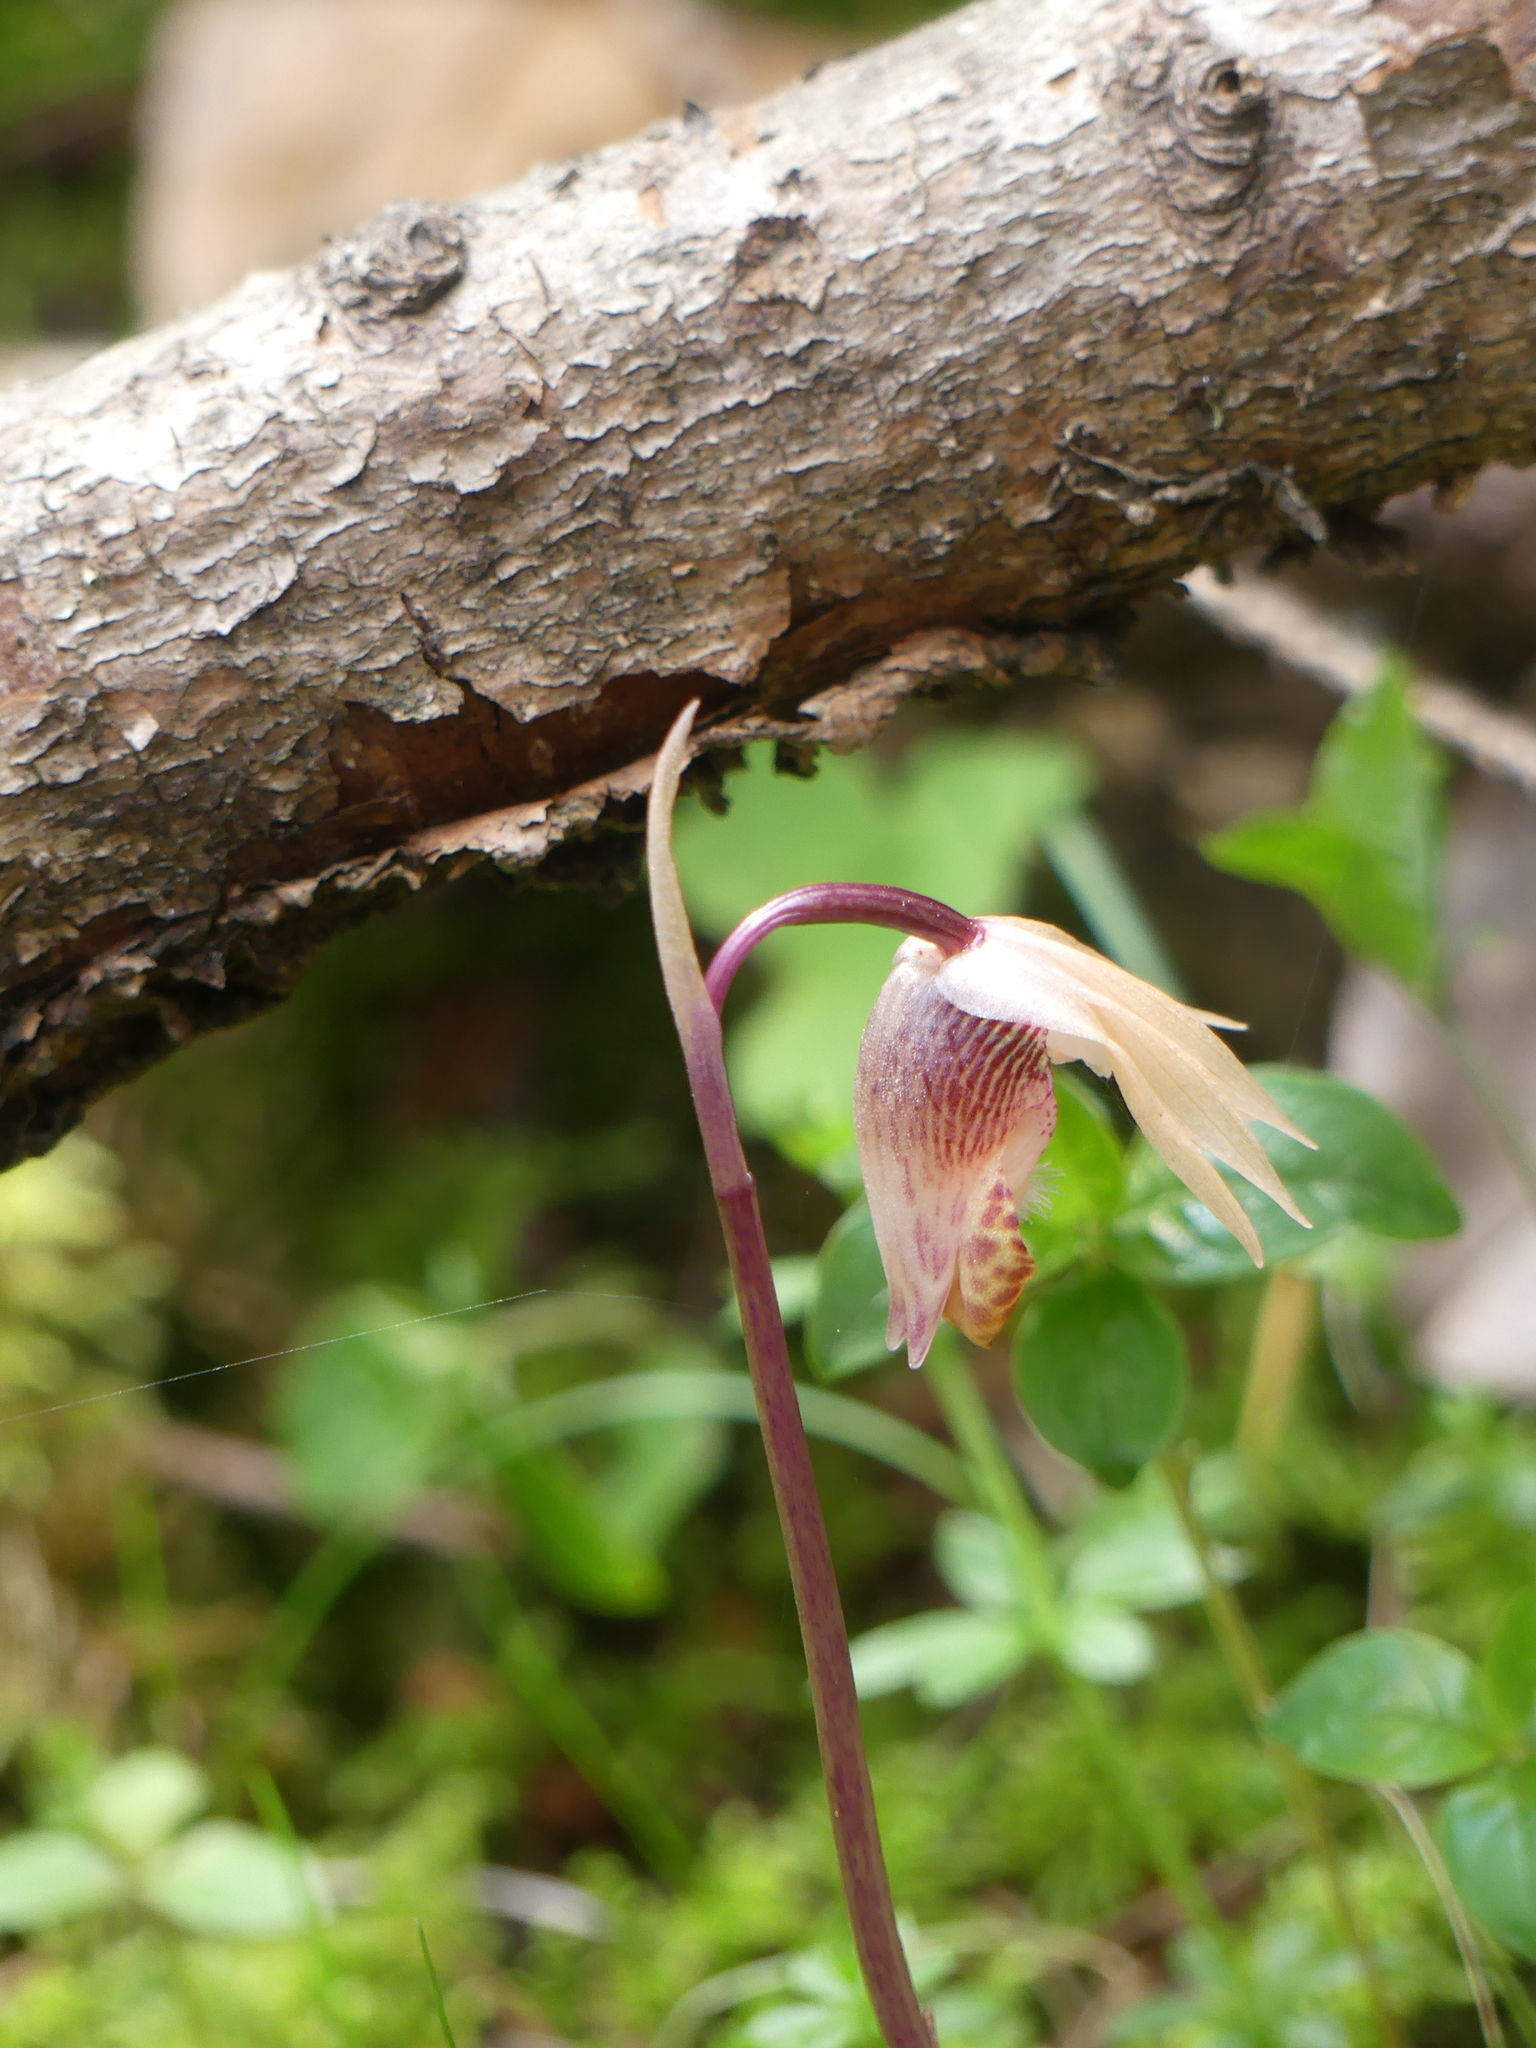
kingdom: Plantae
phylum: Tracheophyta
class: Liliopsida
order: Asparagales
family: Orchidaceae
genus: Calypso
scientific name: Calypso bulbosa
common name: Calypso
